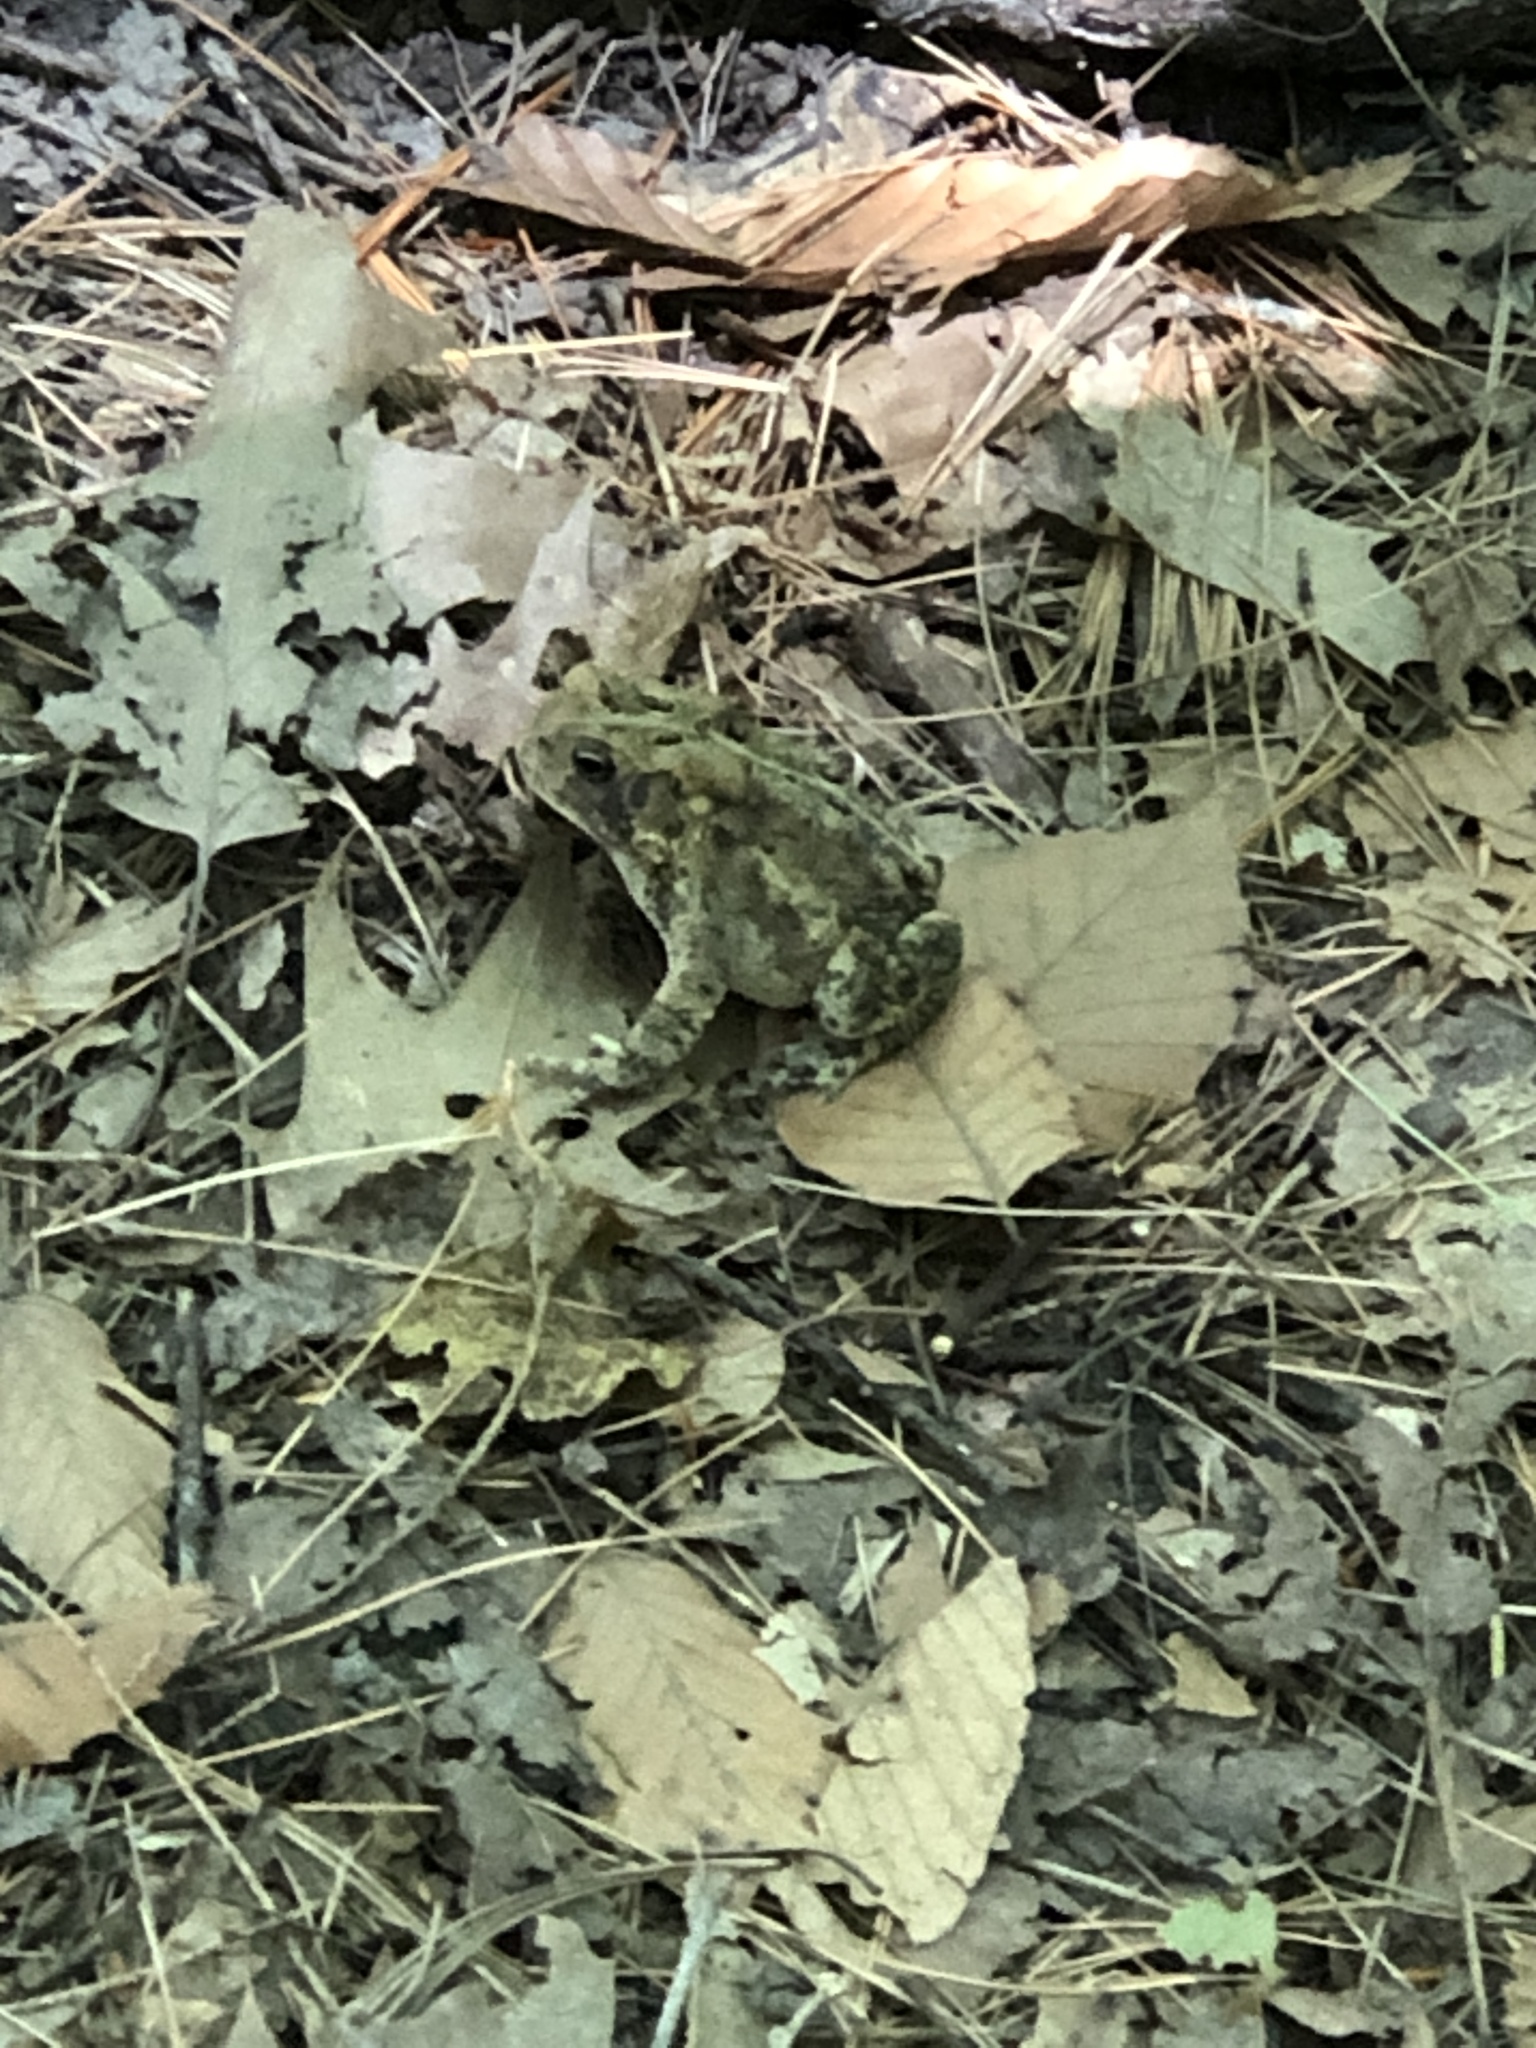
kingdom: Animalia
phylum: Chordata
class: Amphibia
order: Anura
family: Bufonidae
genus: Anaxyrus
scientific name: Anaxyrus americanus
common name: American toad
